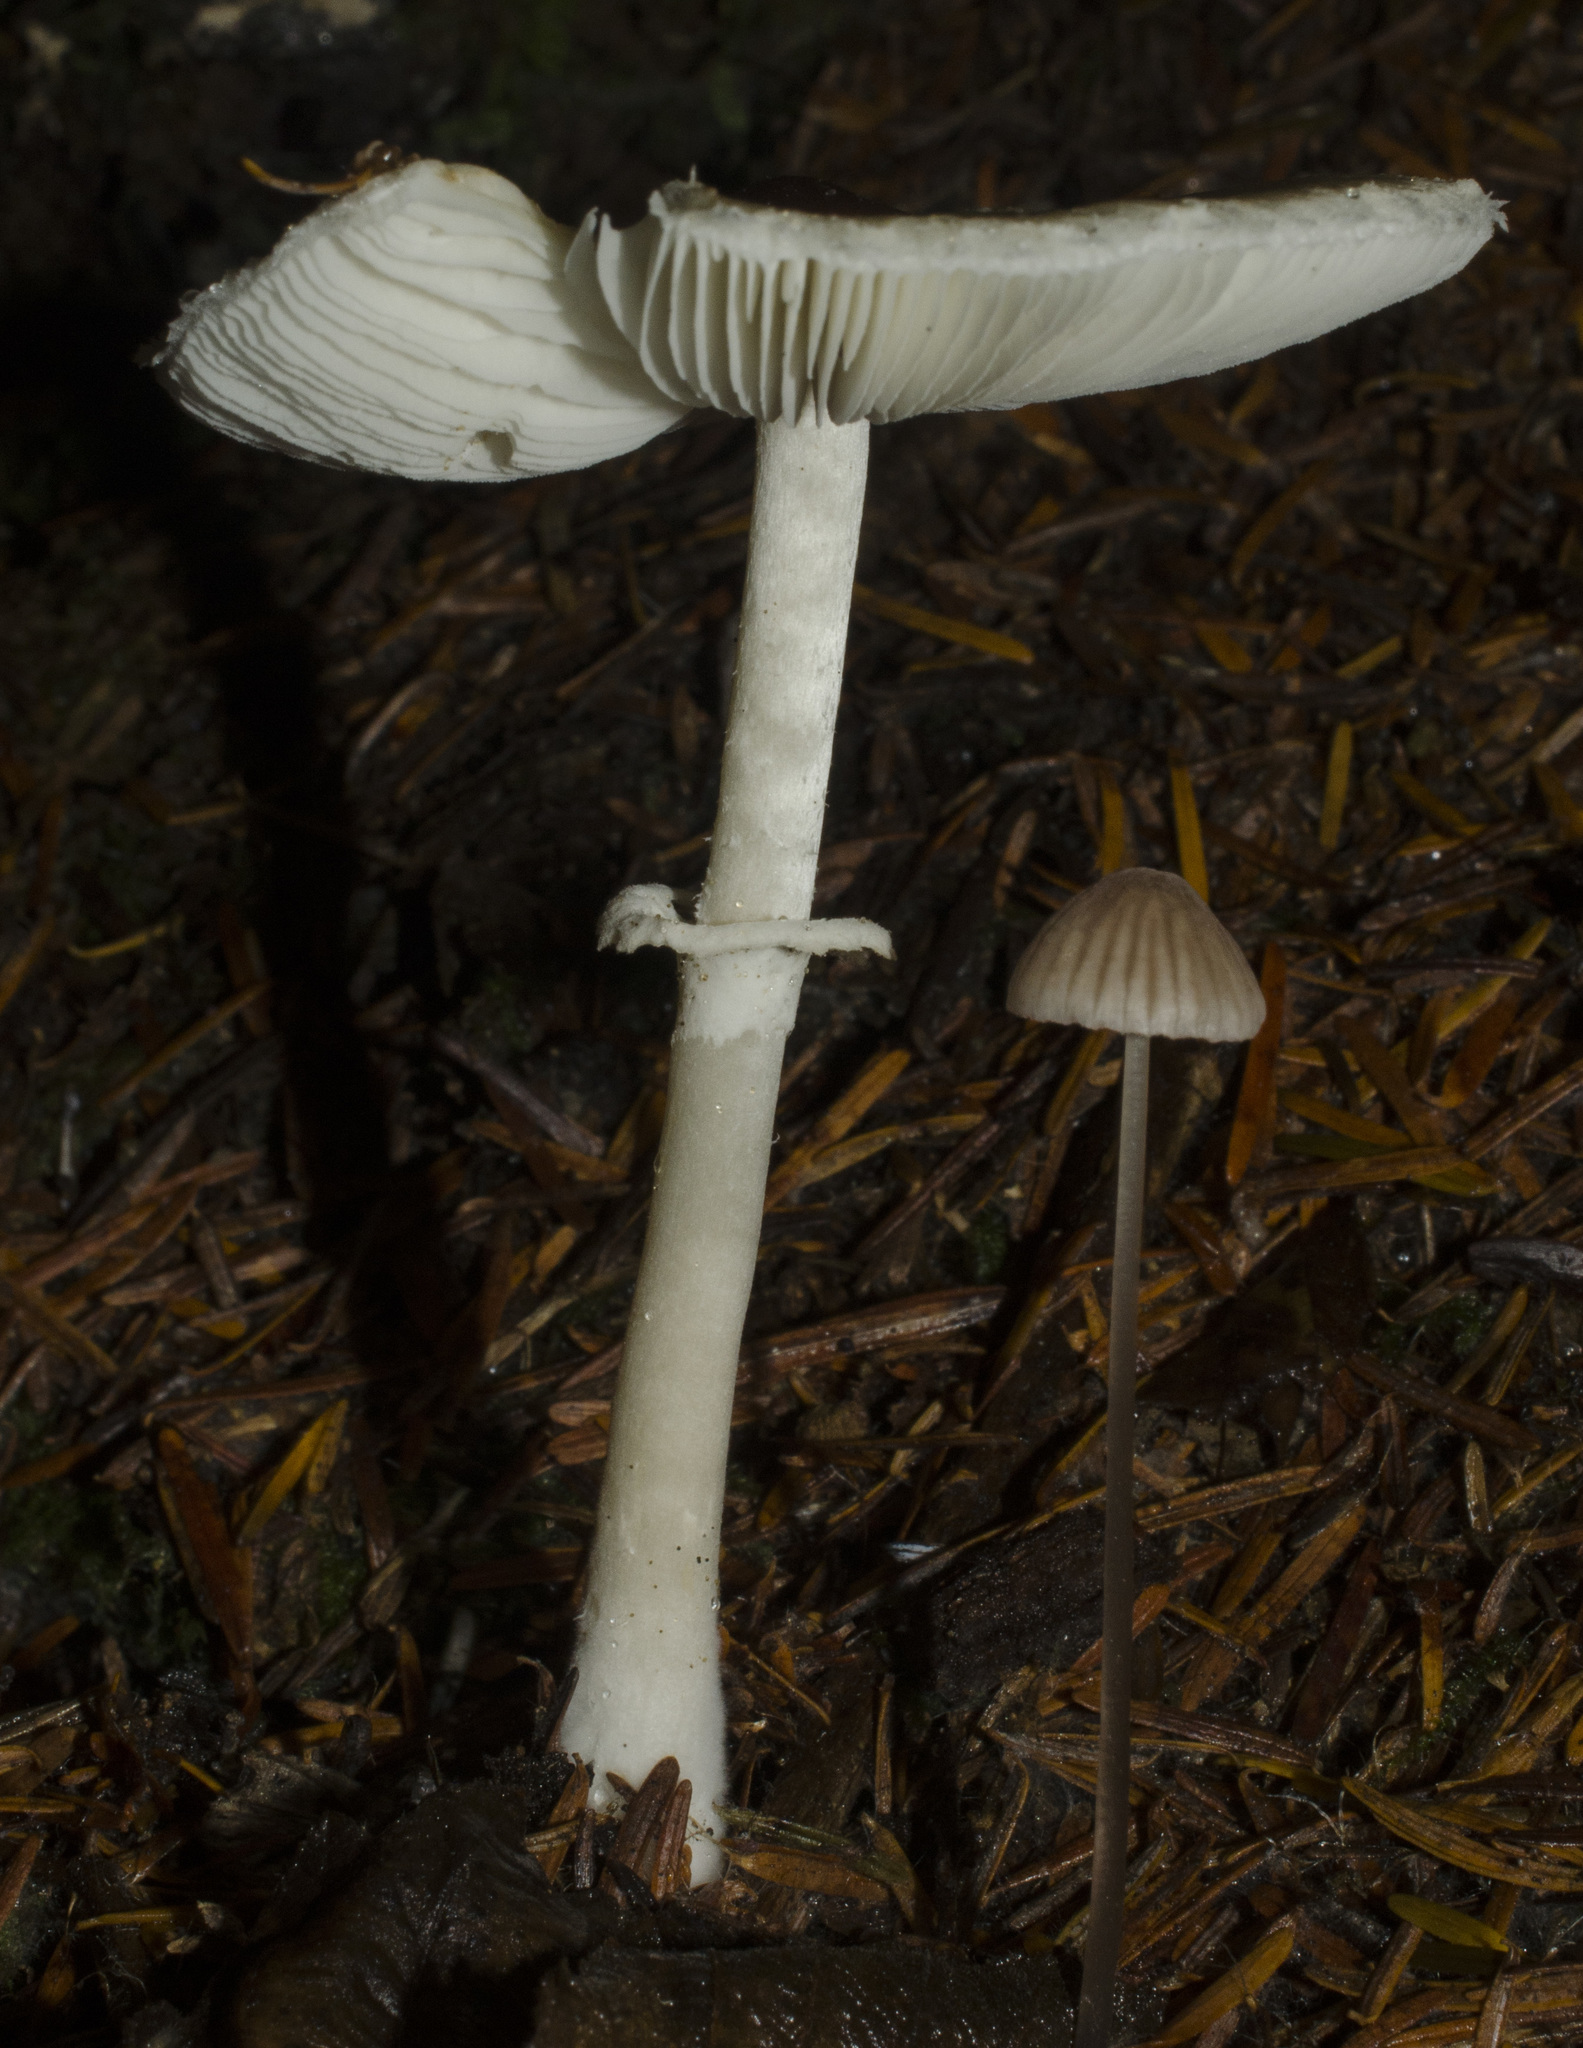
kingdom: Fungi
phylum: Basidiomycota
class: Agaricomycetes
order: Agaricales
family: Agaricaceae
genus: Lepiota
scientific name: Lepiota rubrotinctoides
